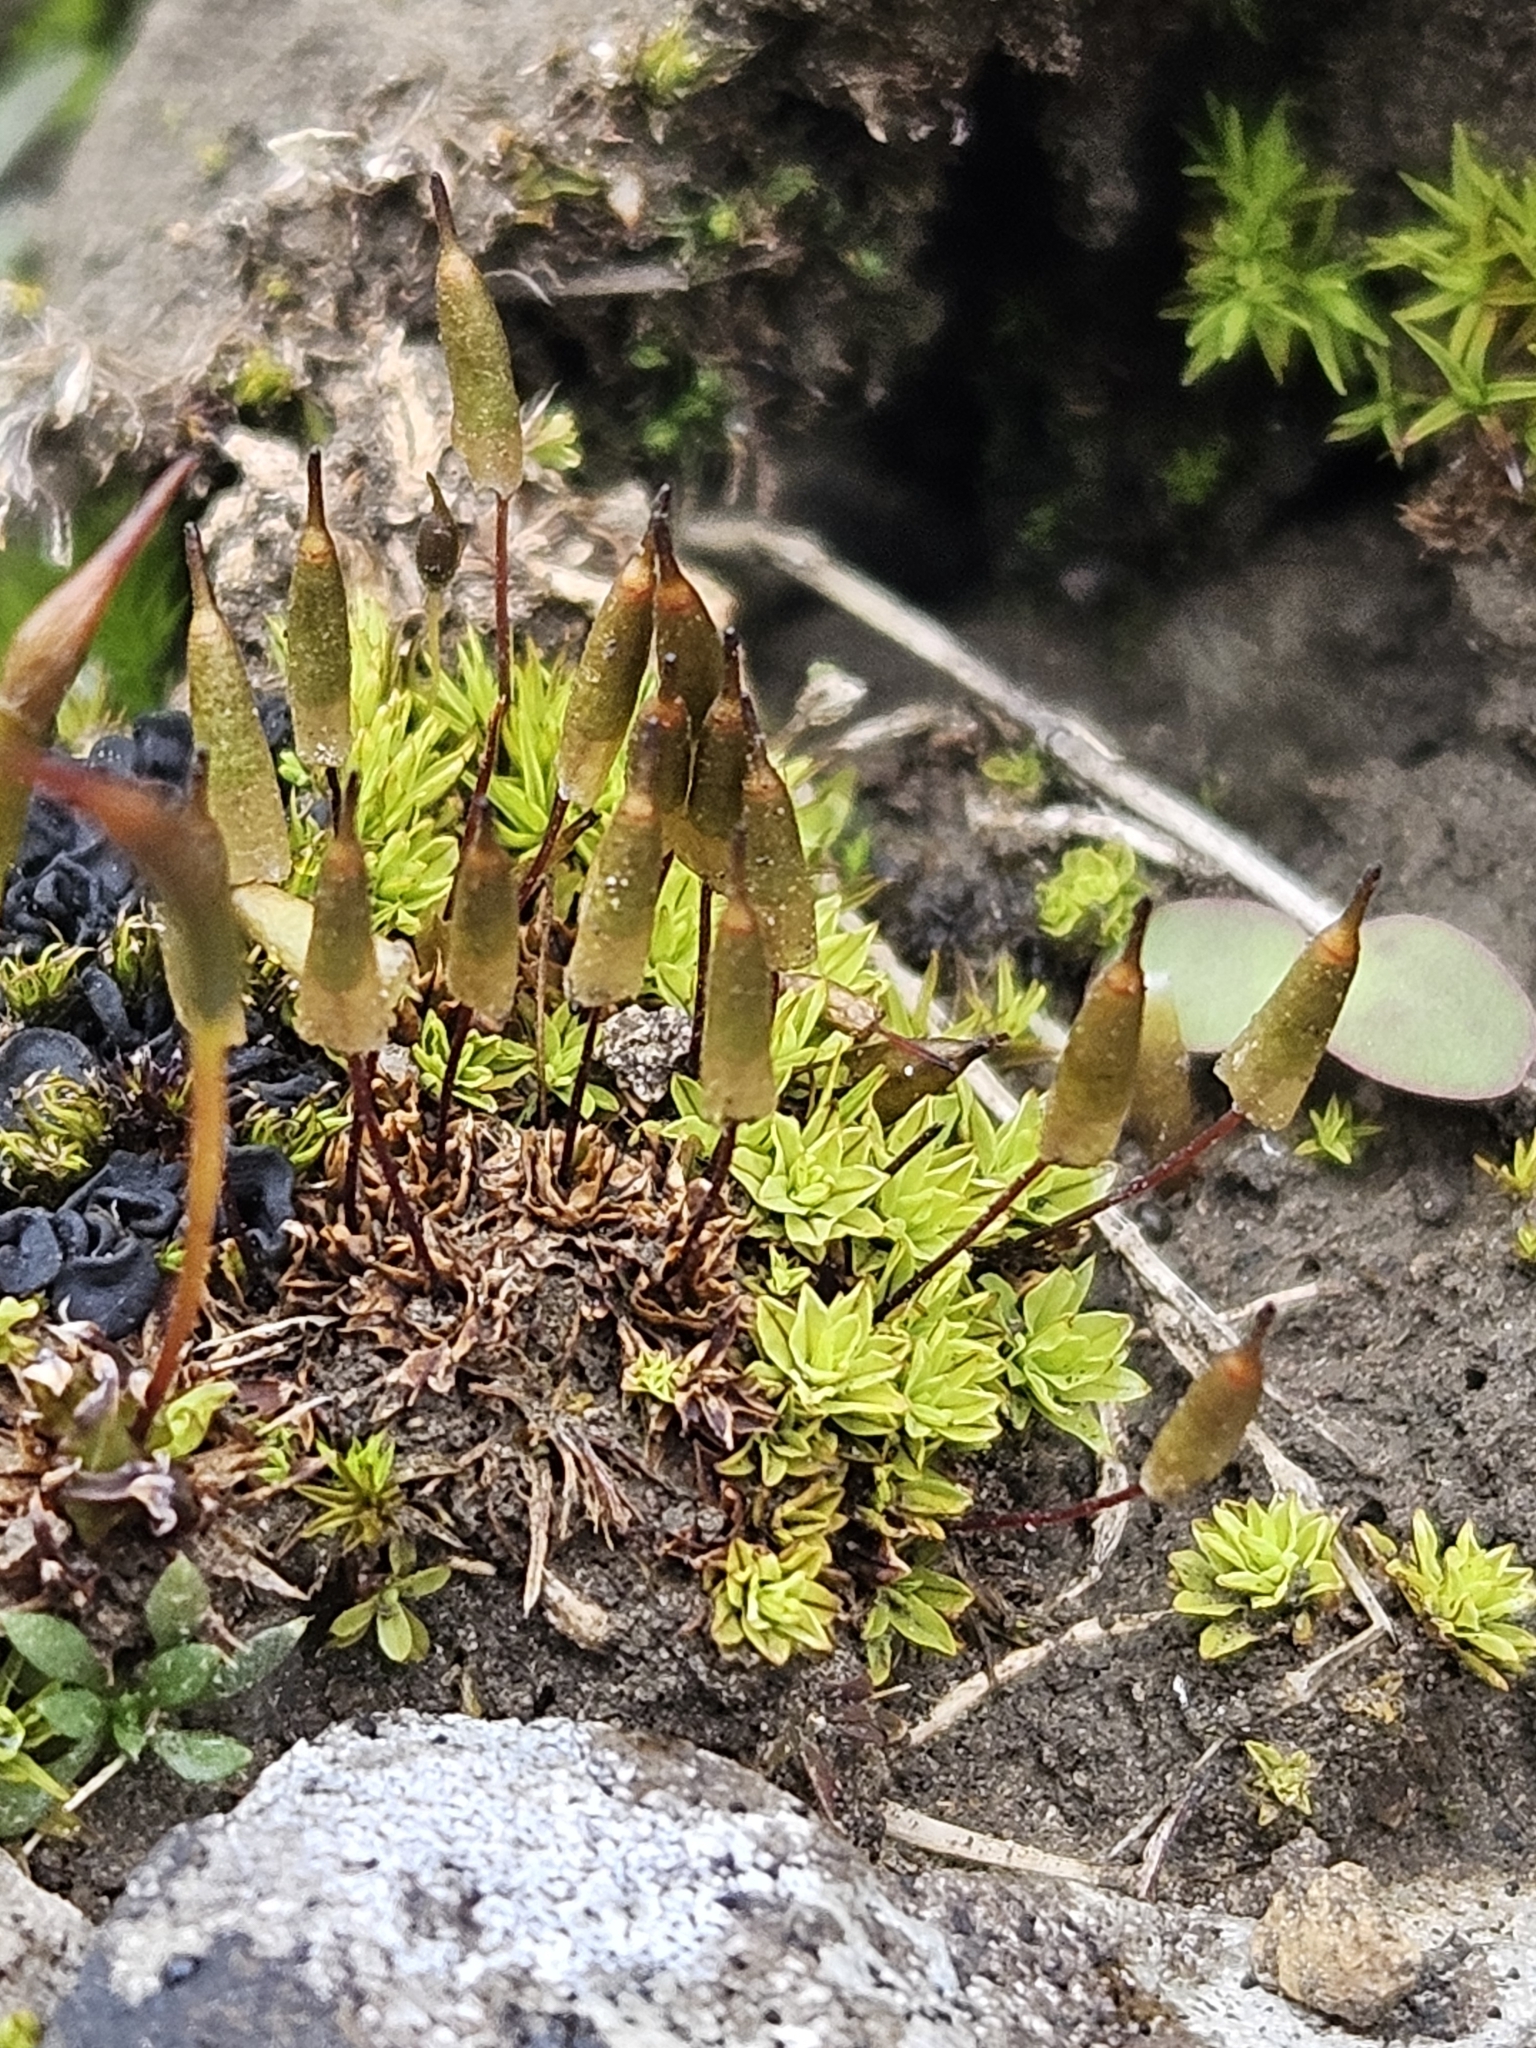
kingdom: Plantae
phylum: Bryophyta
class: Bryopsida
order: Encalyptales
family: Encalyptaceae
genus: Encalypta
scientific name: Encalypta vulgaris
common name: Common extinguisher-moss
